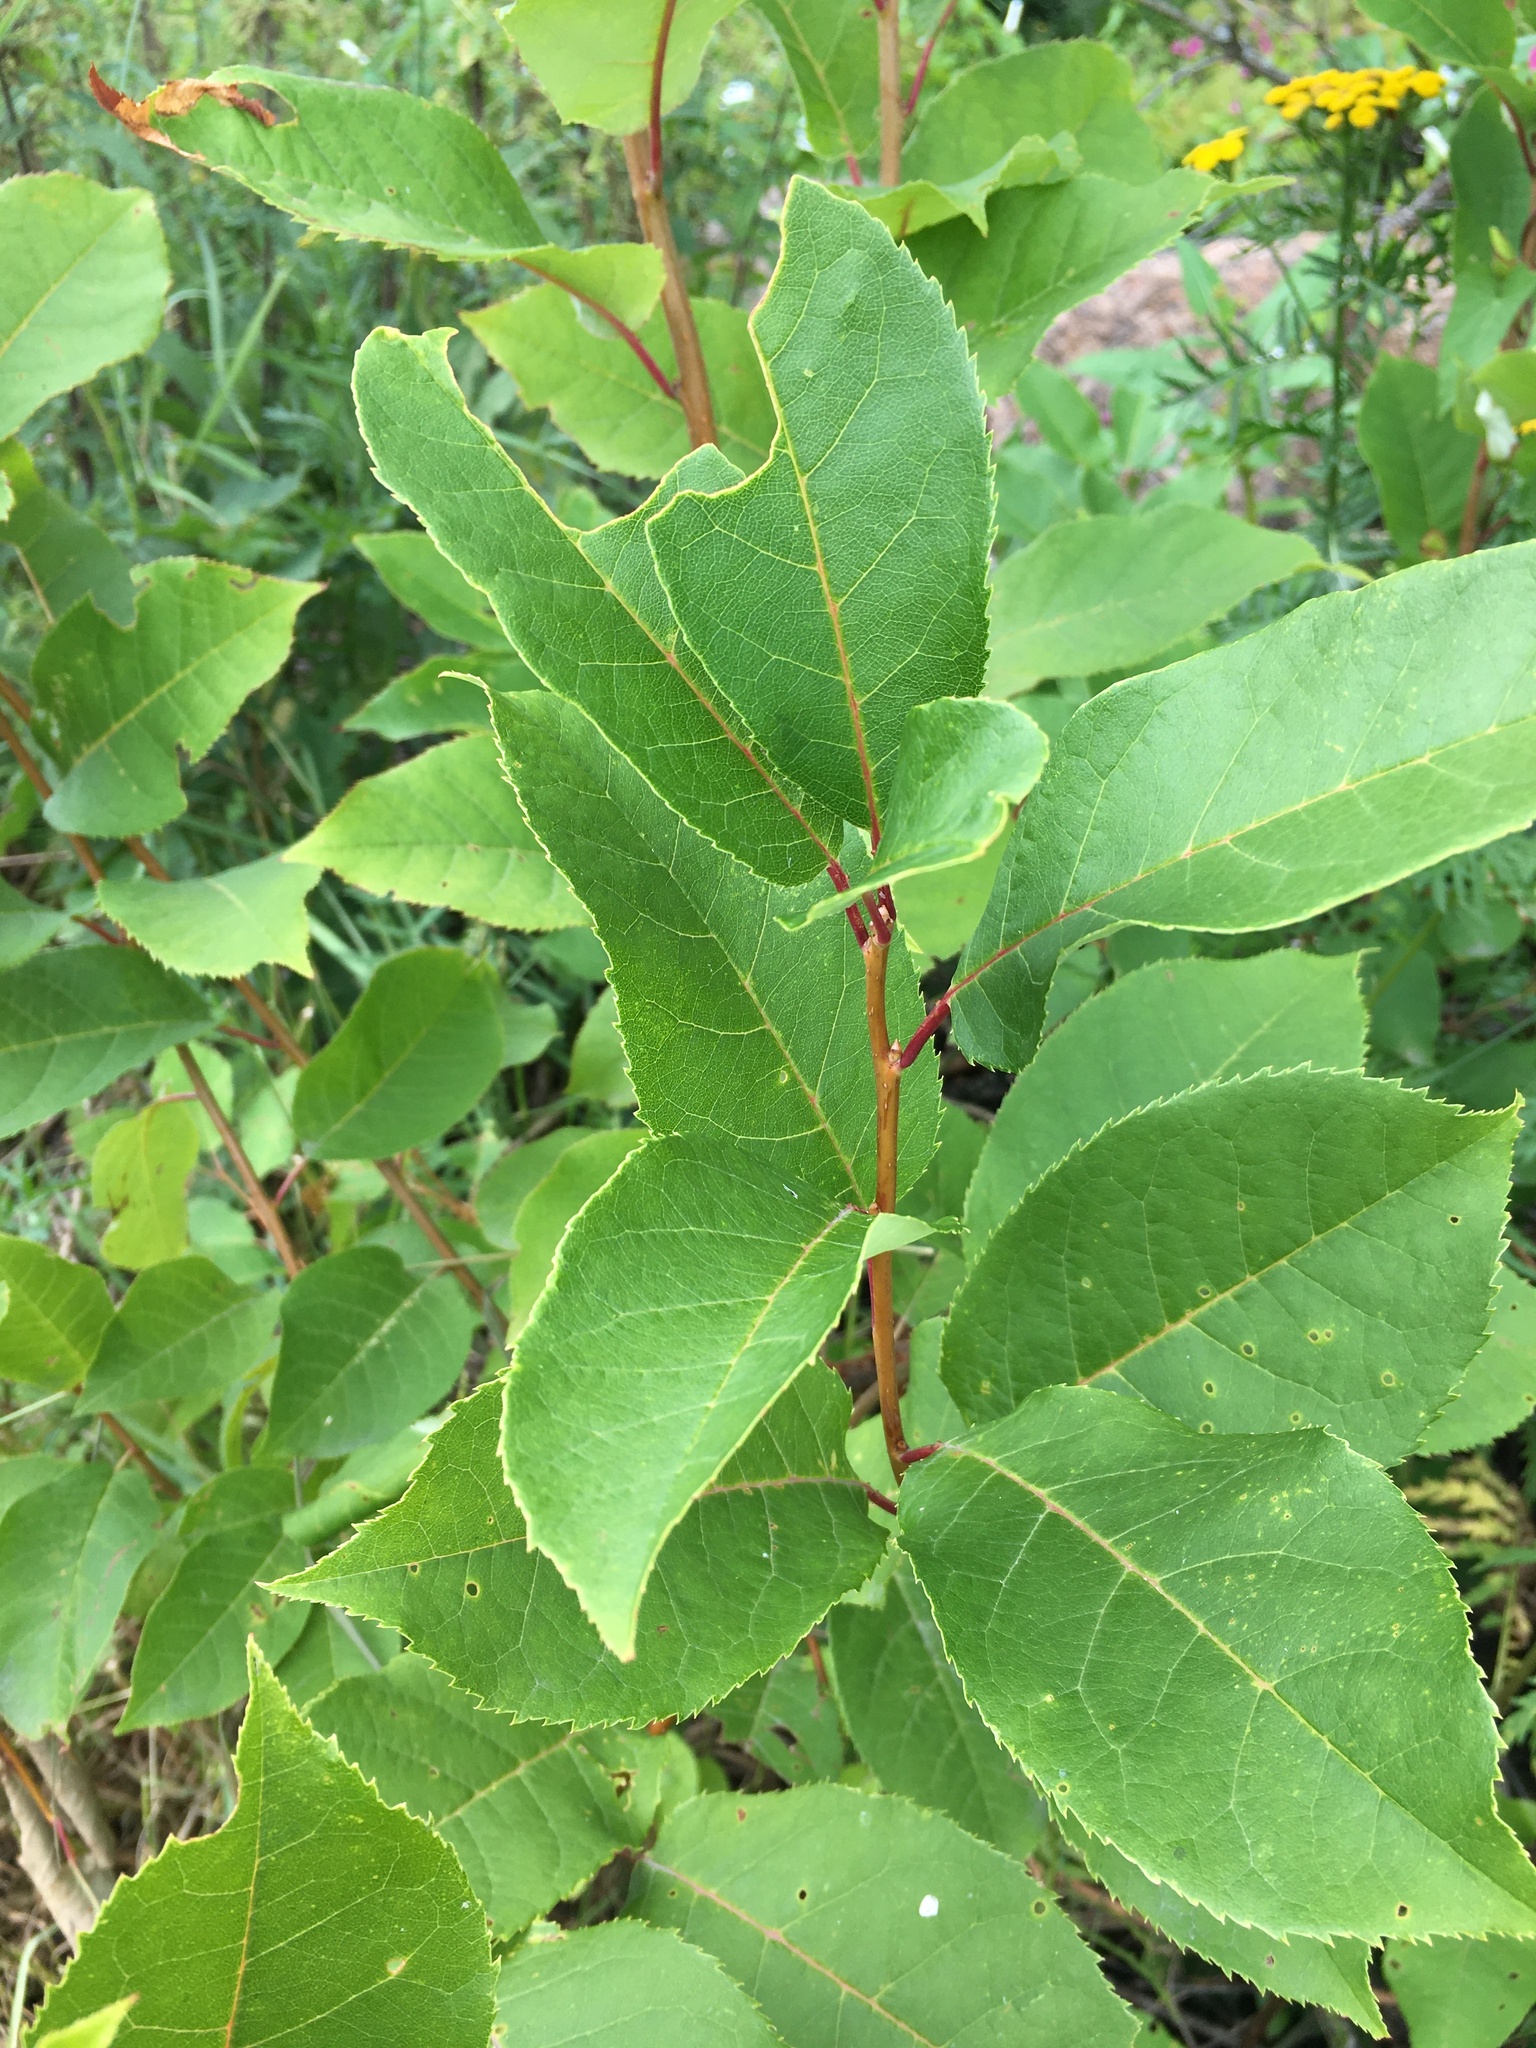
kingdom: Plantae
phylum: Tracheophyta
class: Magnoliopsida
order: Rosales
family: Rosaceae
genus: Prunus
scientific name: Prunus virginiana
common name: Chokecherry
